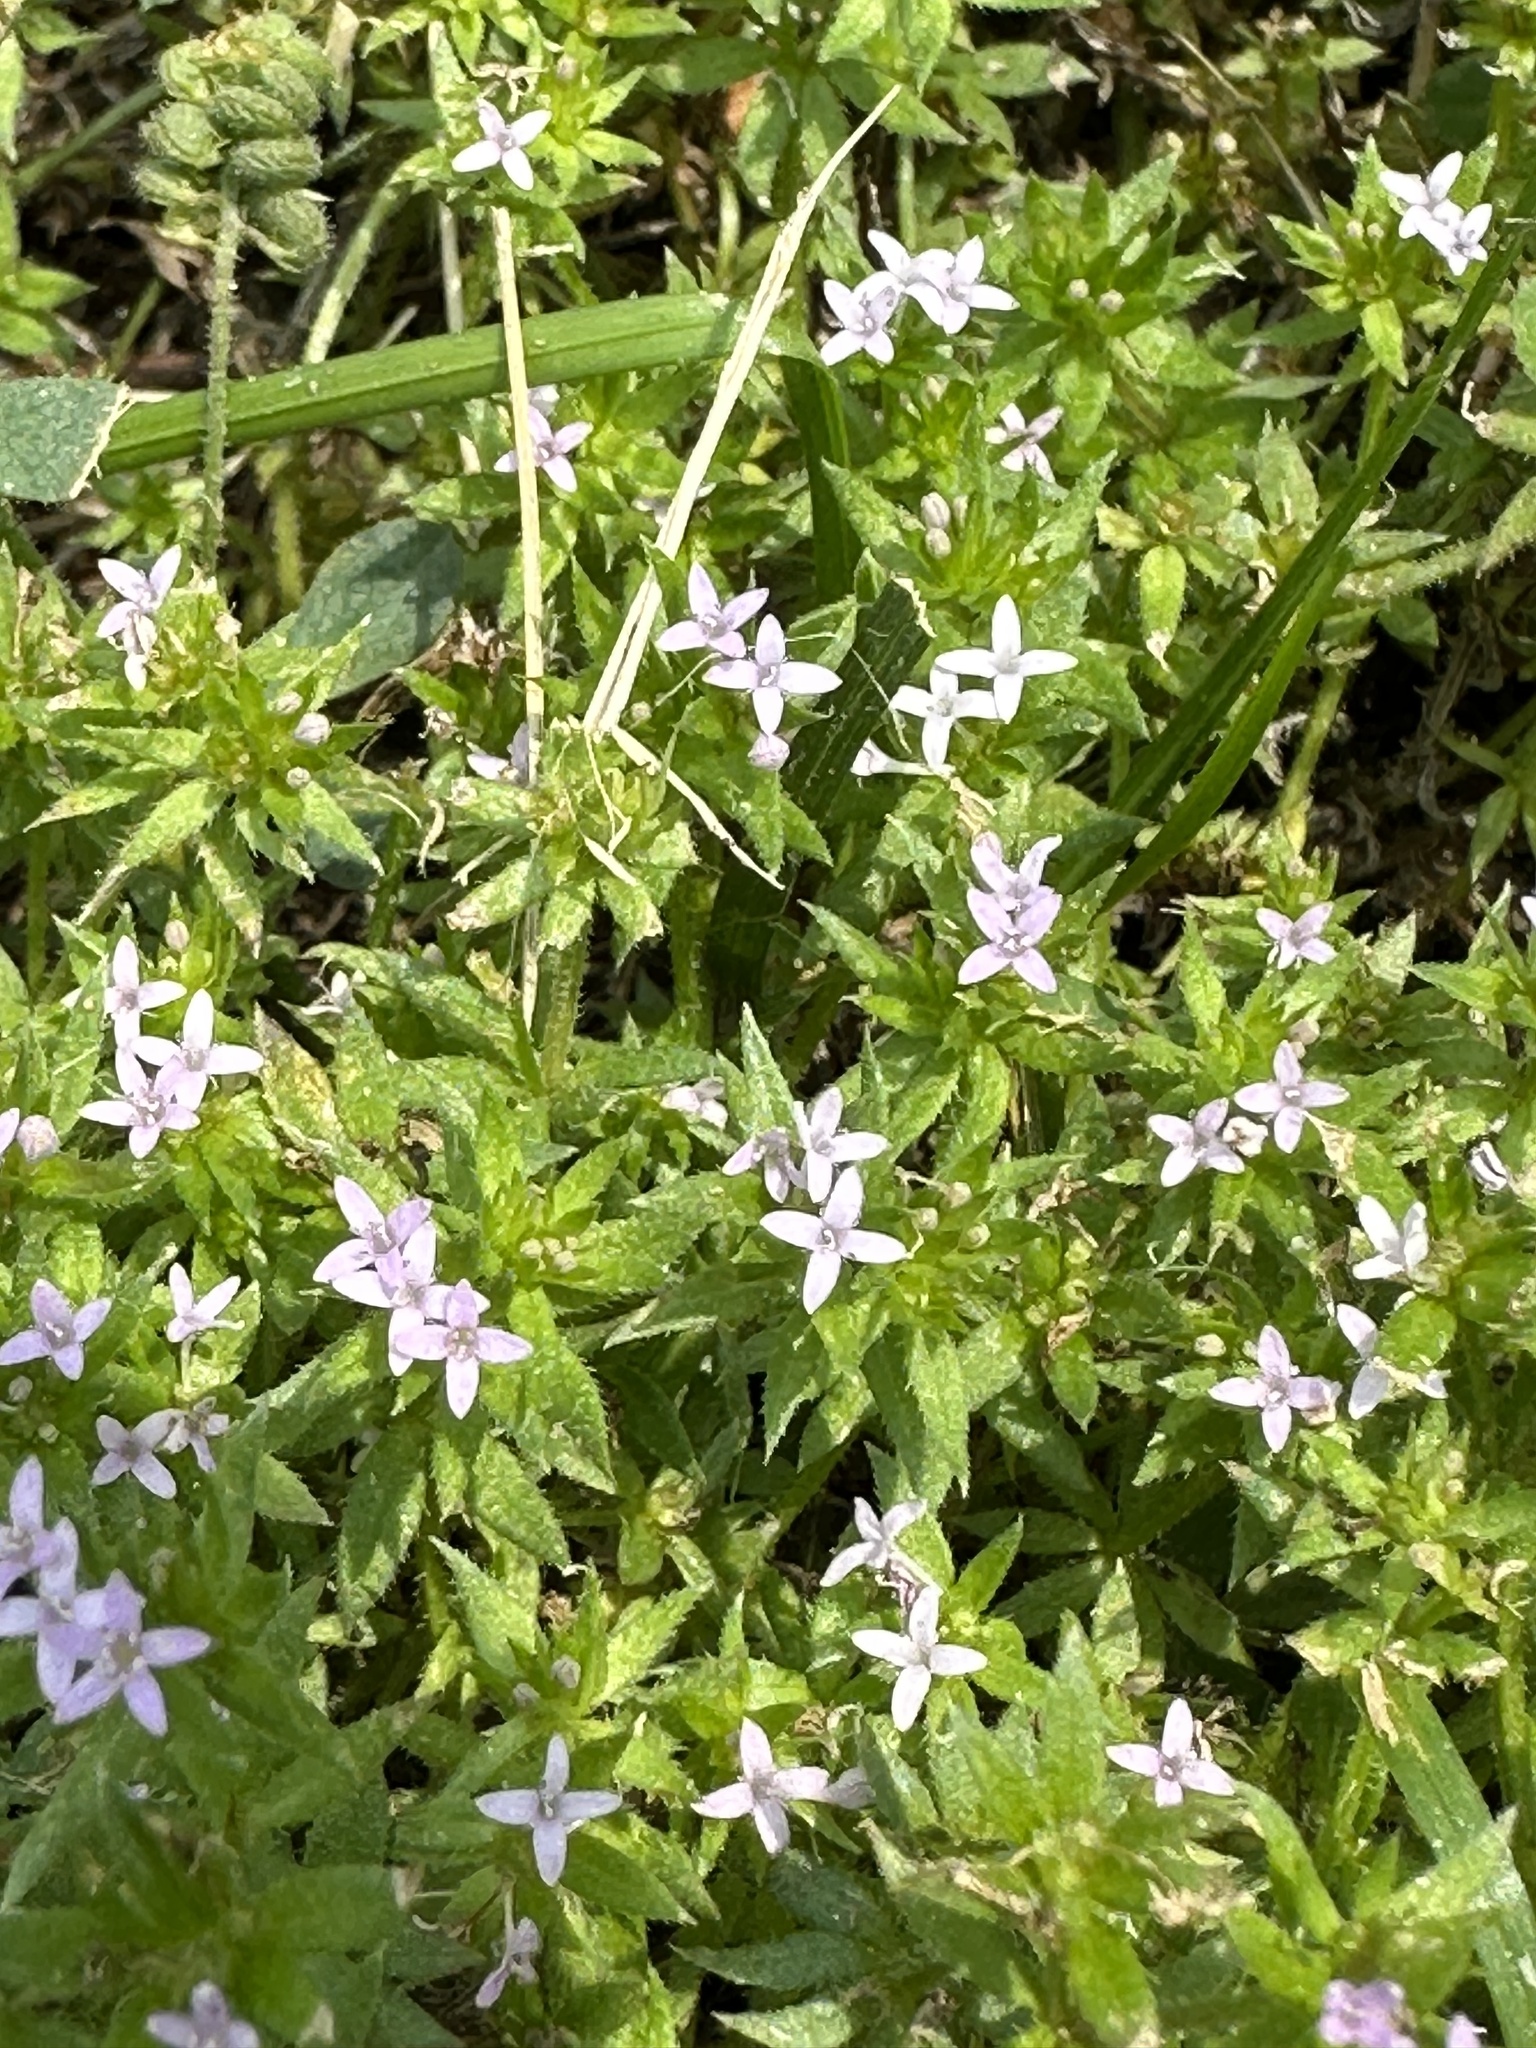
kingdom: Plantae
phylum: Tracheophyta
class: Magnoliopsida
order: Gentianales
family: Rubiaceae
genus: Sherardia
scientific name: Sherardia arvensis
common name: Field madder
